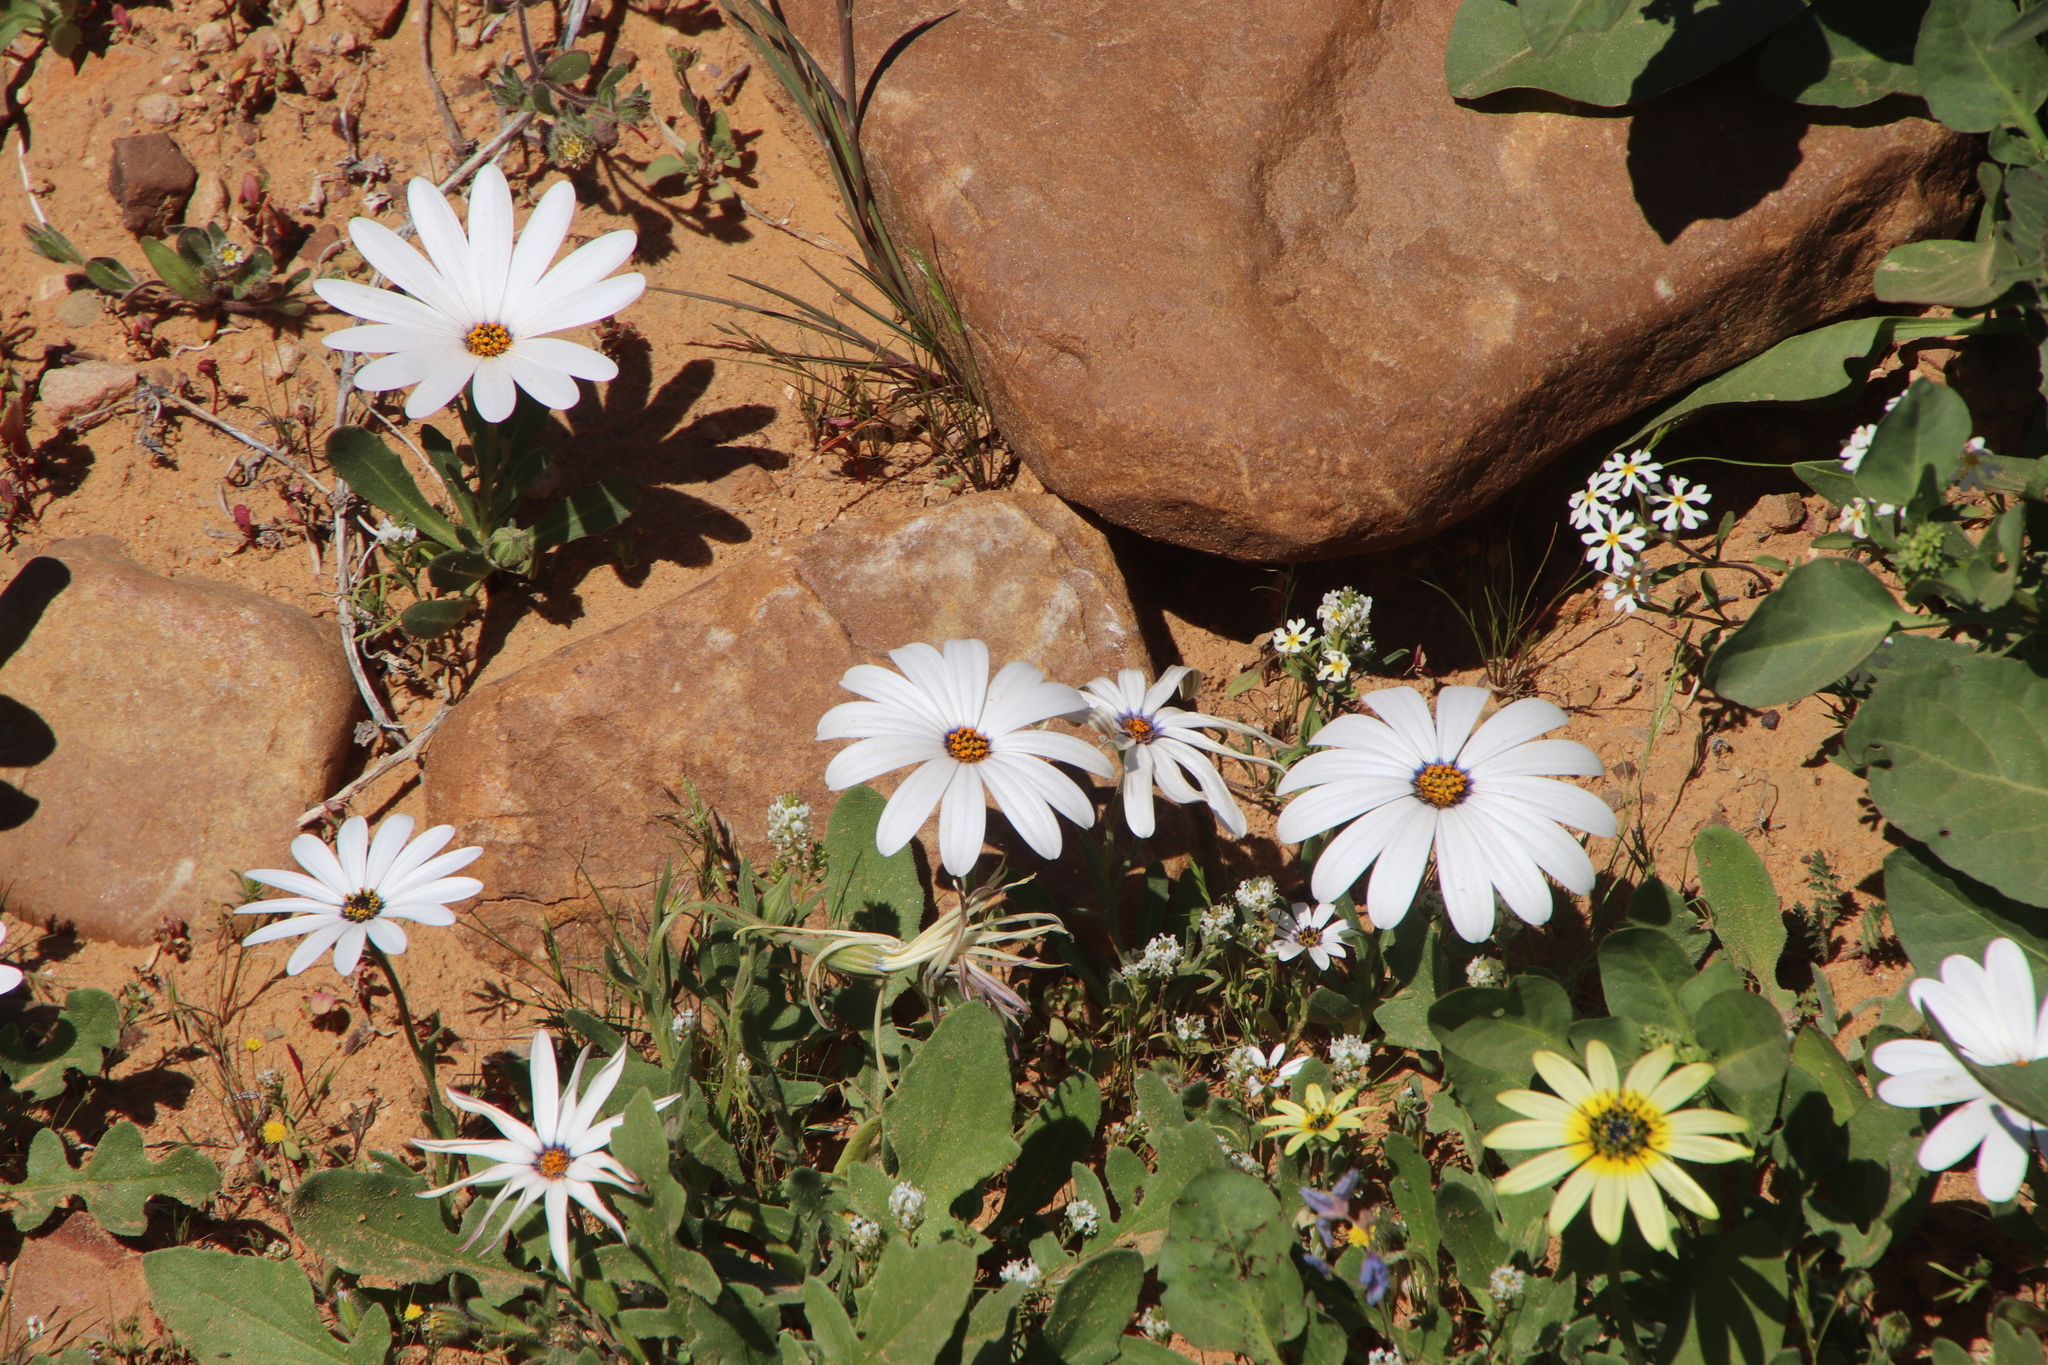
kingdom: Plantae
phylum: Tracheophyta
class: Magnoliopsida
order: Asterales
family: Asteraceae
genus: Dimorphotheca
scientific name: Dimorphotheca pluvialis
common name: Weather prophet
